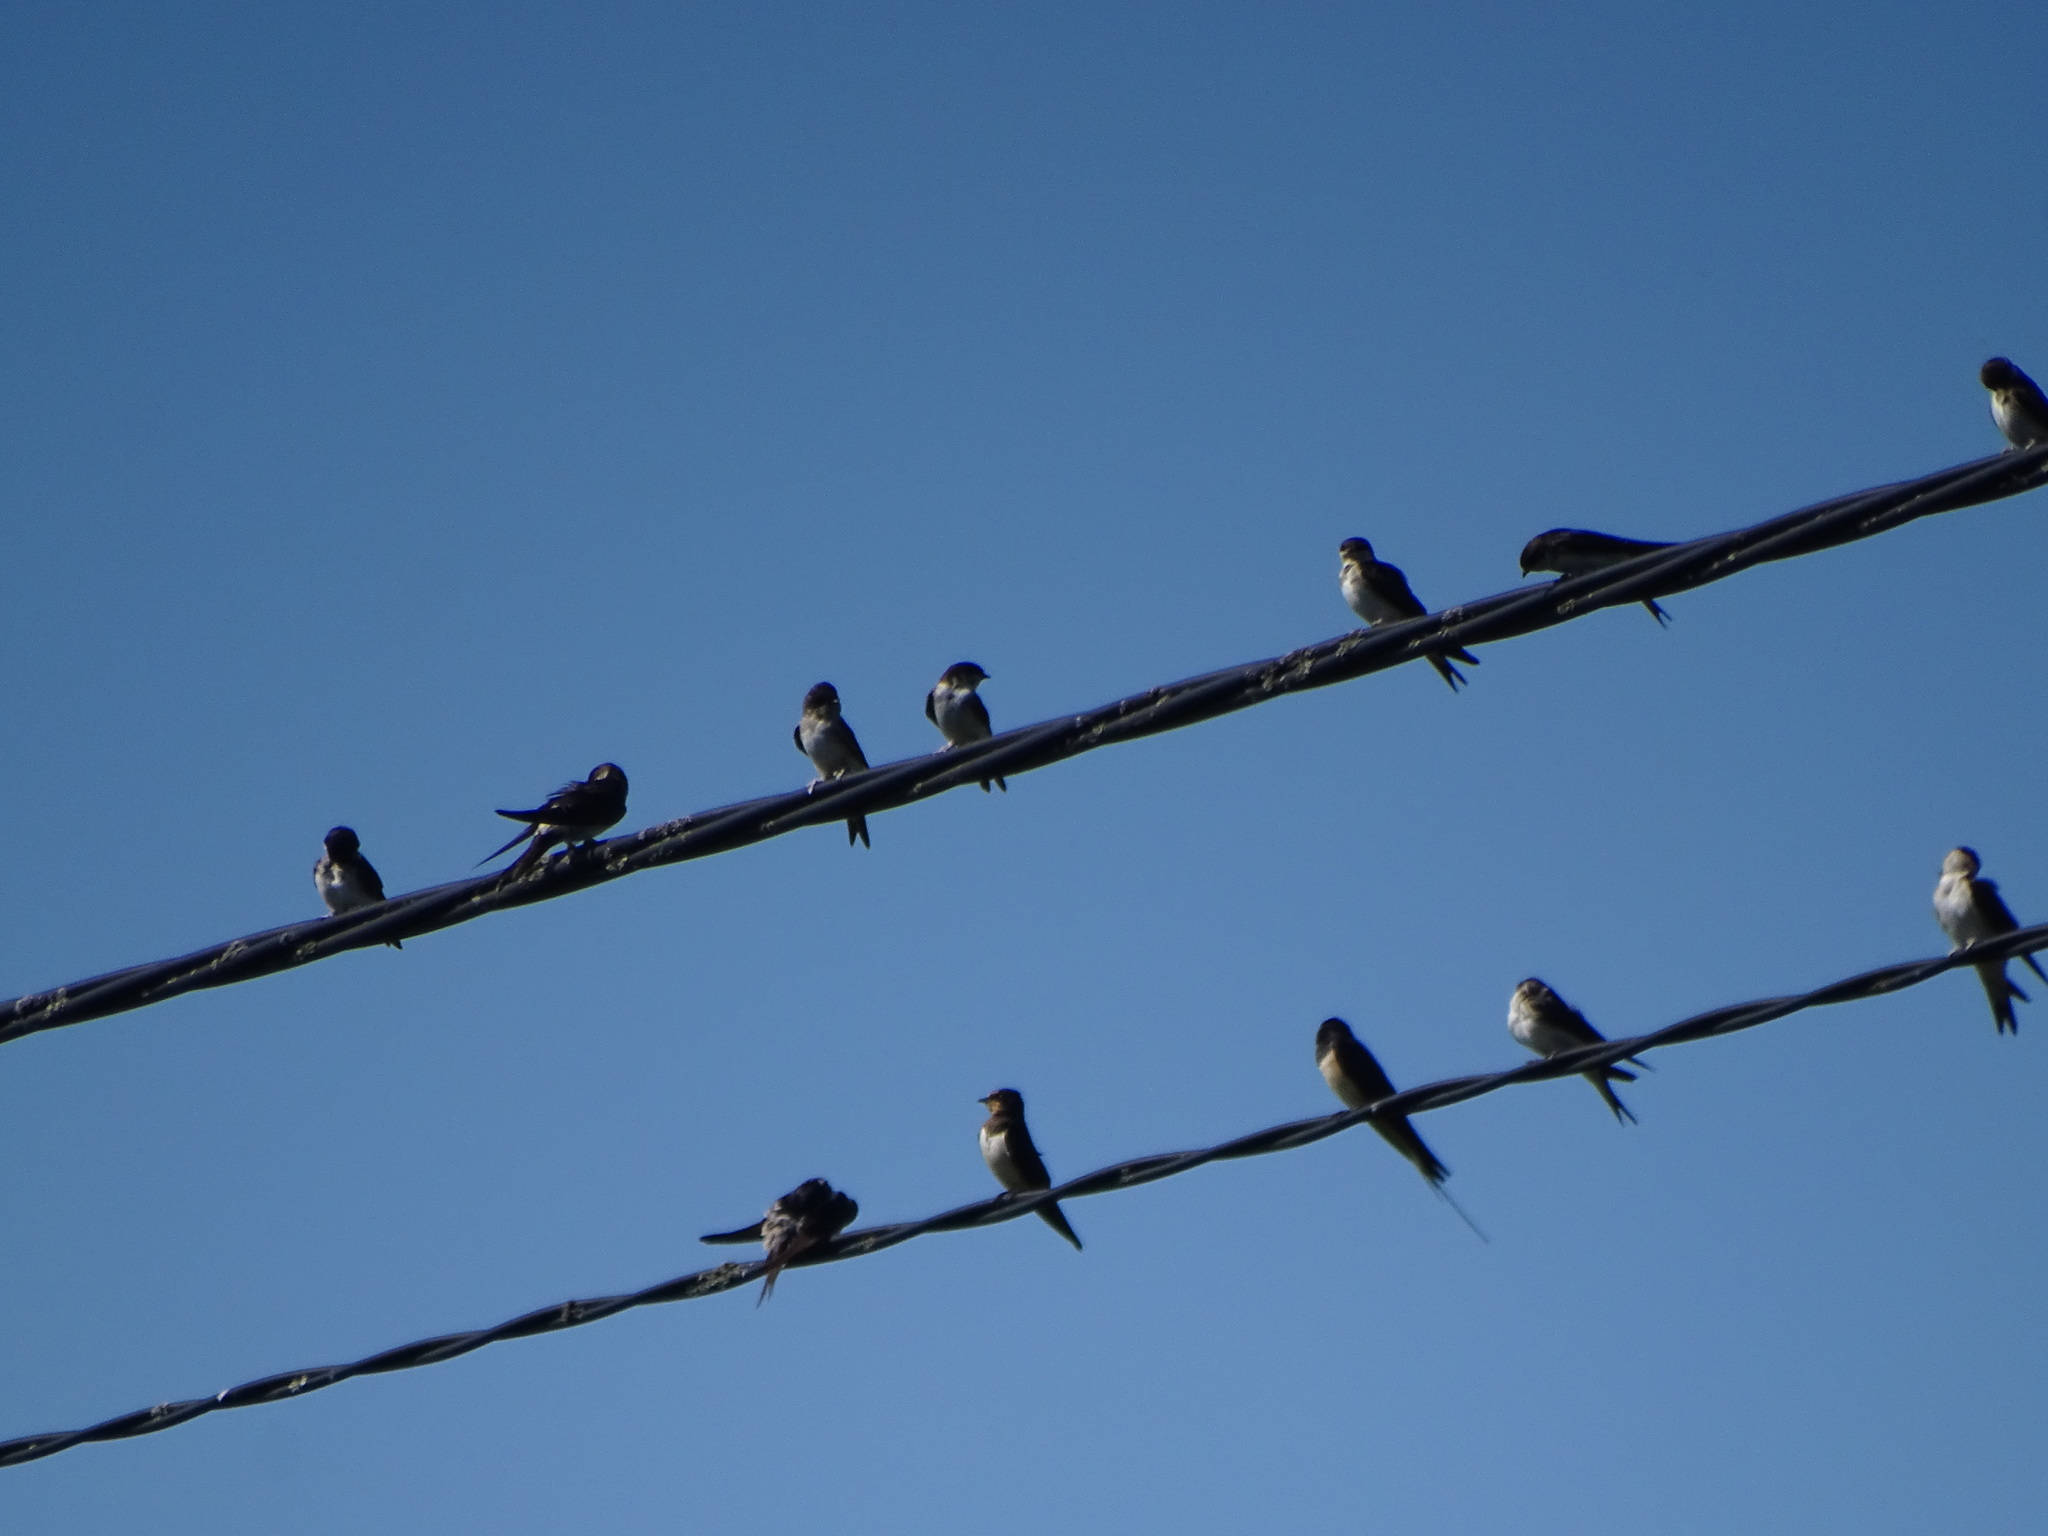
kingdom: Animalia
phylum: Chordata
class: Aves
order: Passeriformes
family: Hirundinidae
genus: Hirundo
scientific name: Hirundo rustica
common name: Barn swallow
